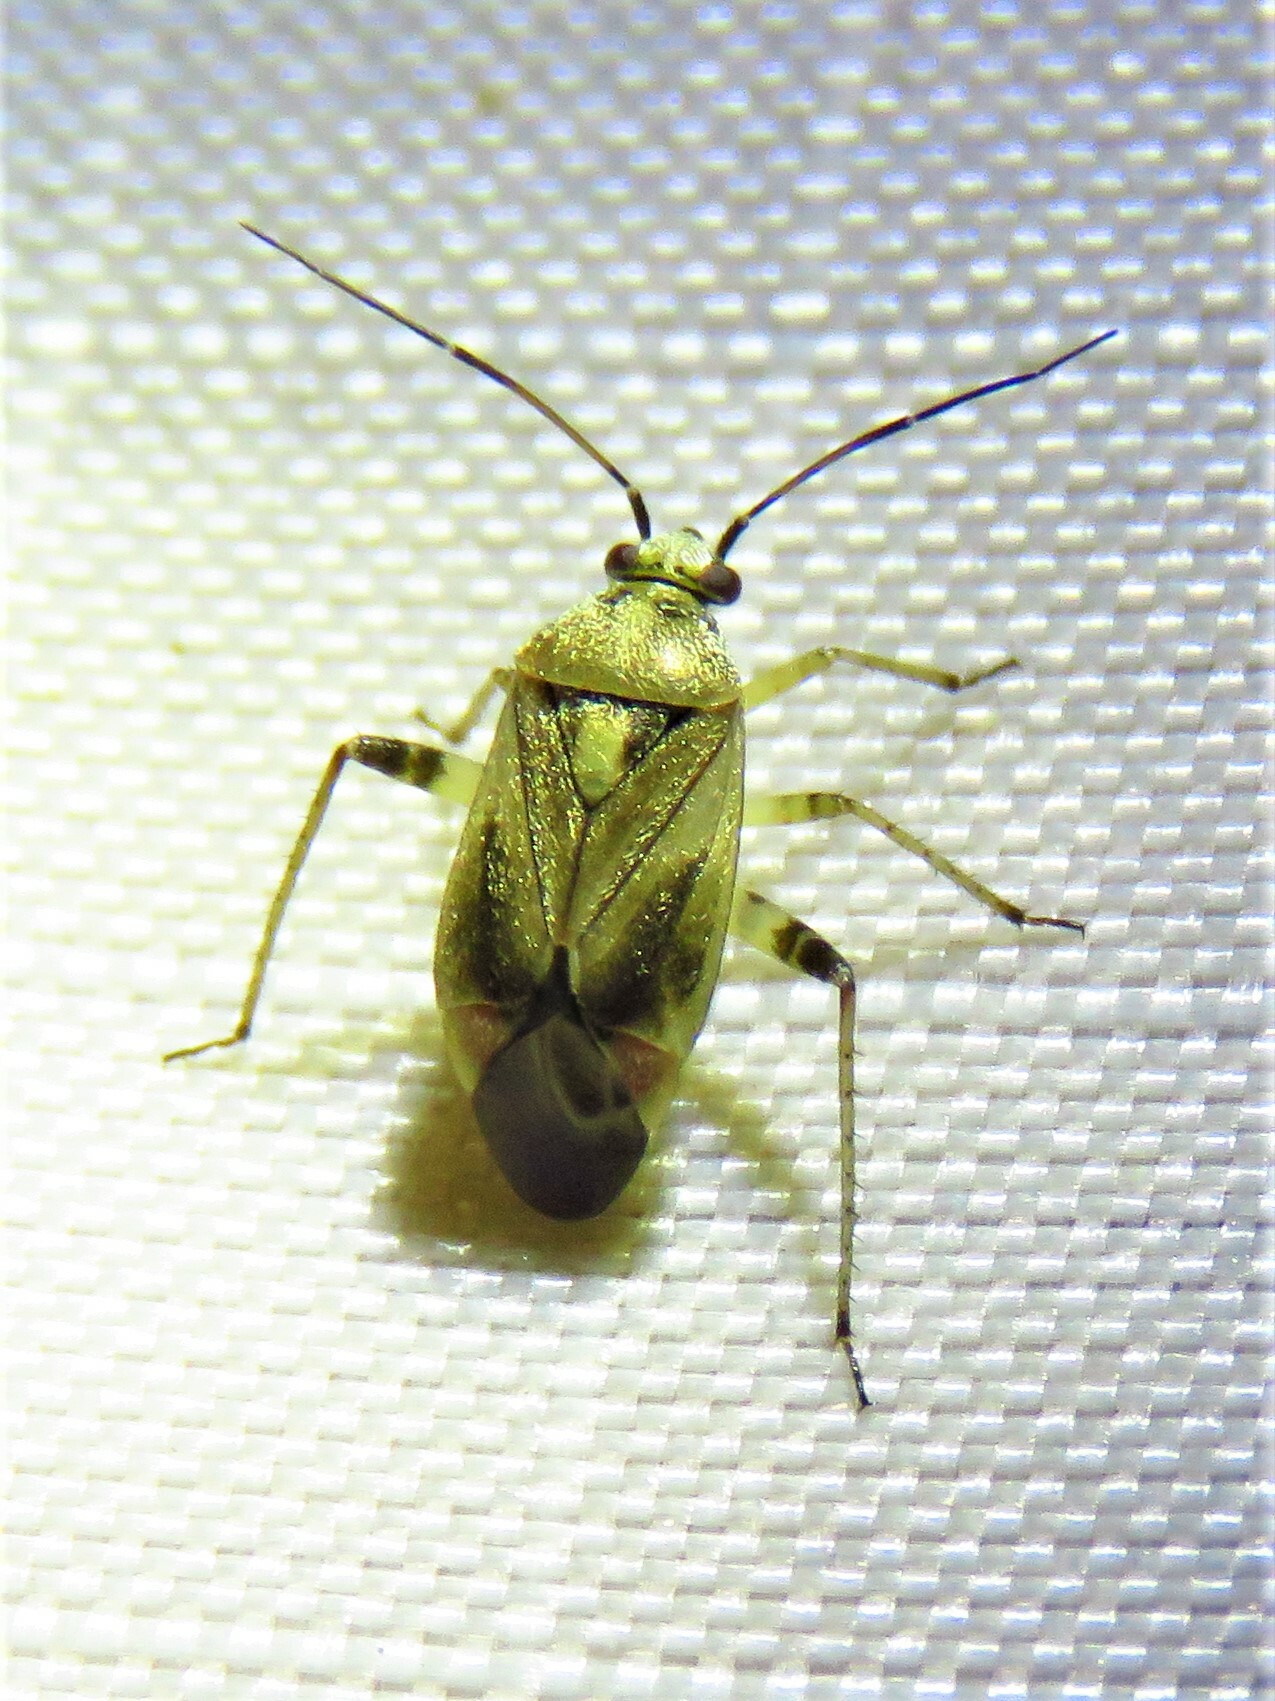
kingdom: Animalia
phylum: Arthropoda
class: Insecta
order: Hemiptera
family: Miridae
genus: Polymerus
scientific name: Polymerus basalis
